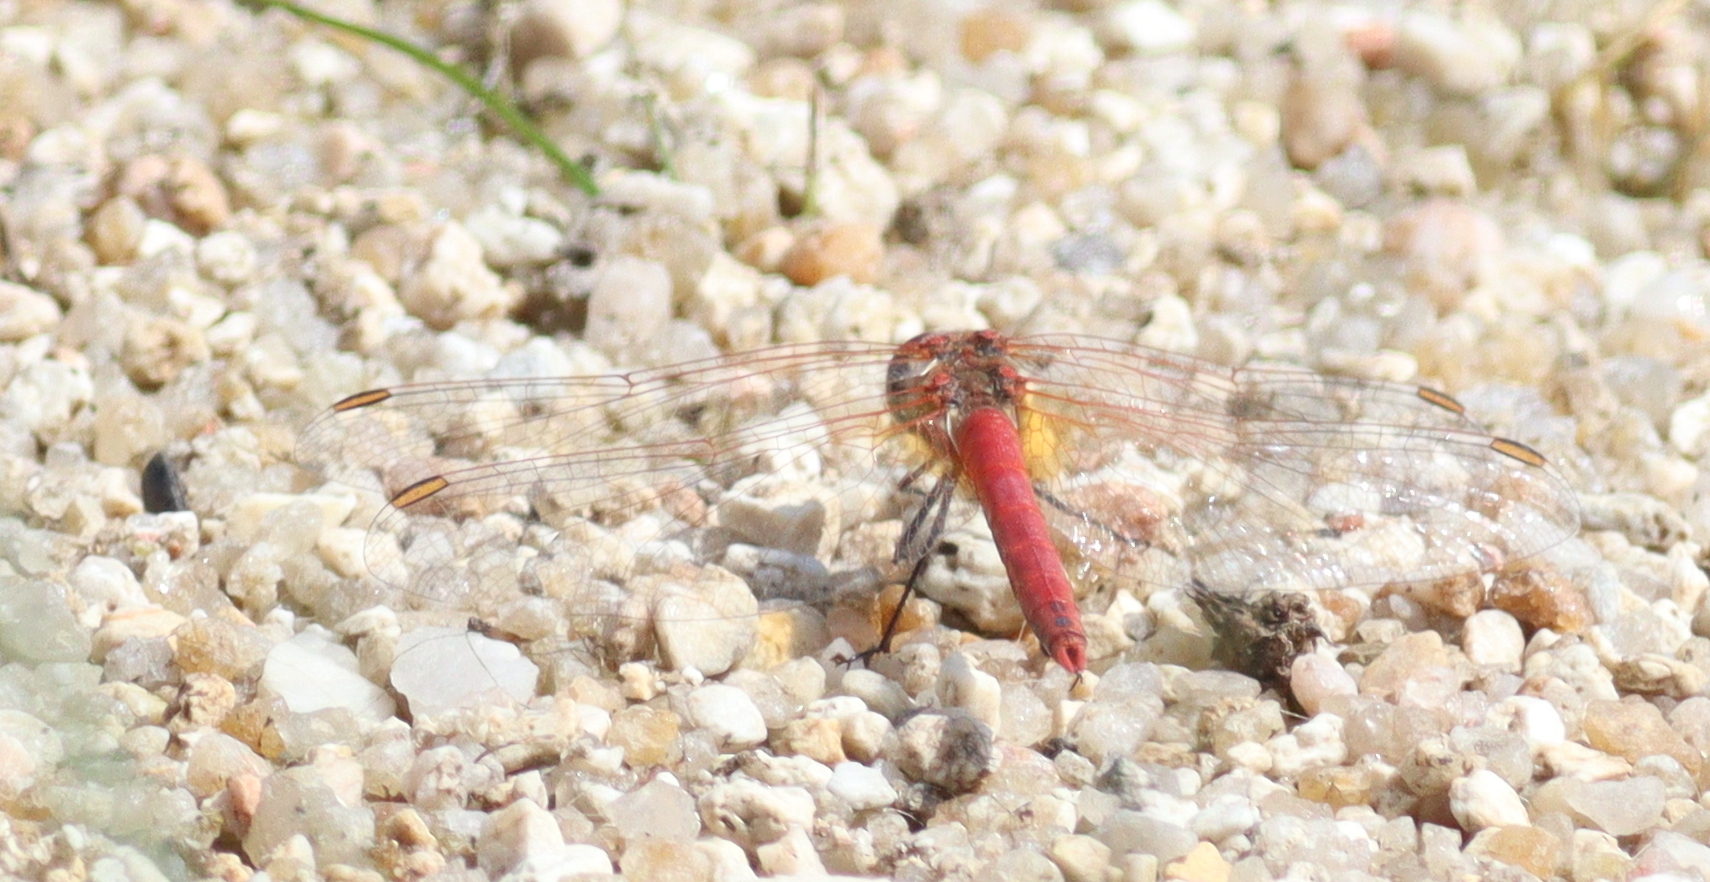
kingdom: Animalia
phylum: Arthropoda
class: Insecta
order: Odonata
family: Libellulidae
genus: Sympetrum
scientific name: Sympetrum fonscolombii
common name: Red-veined darter
